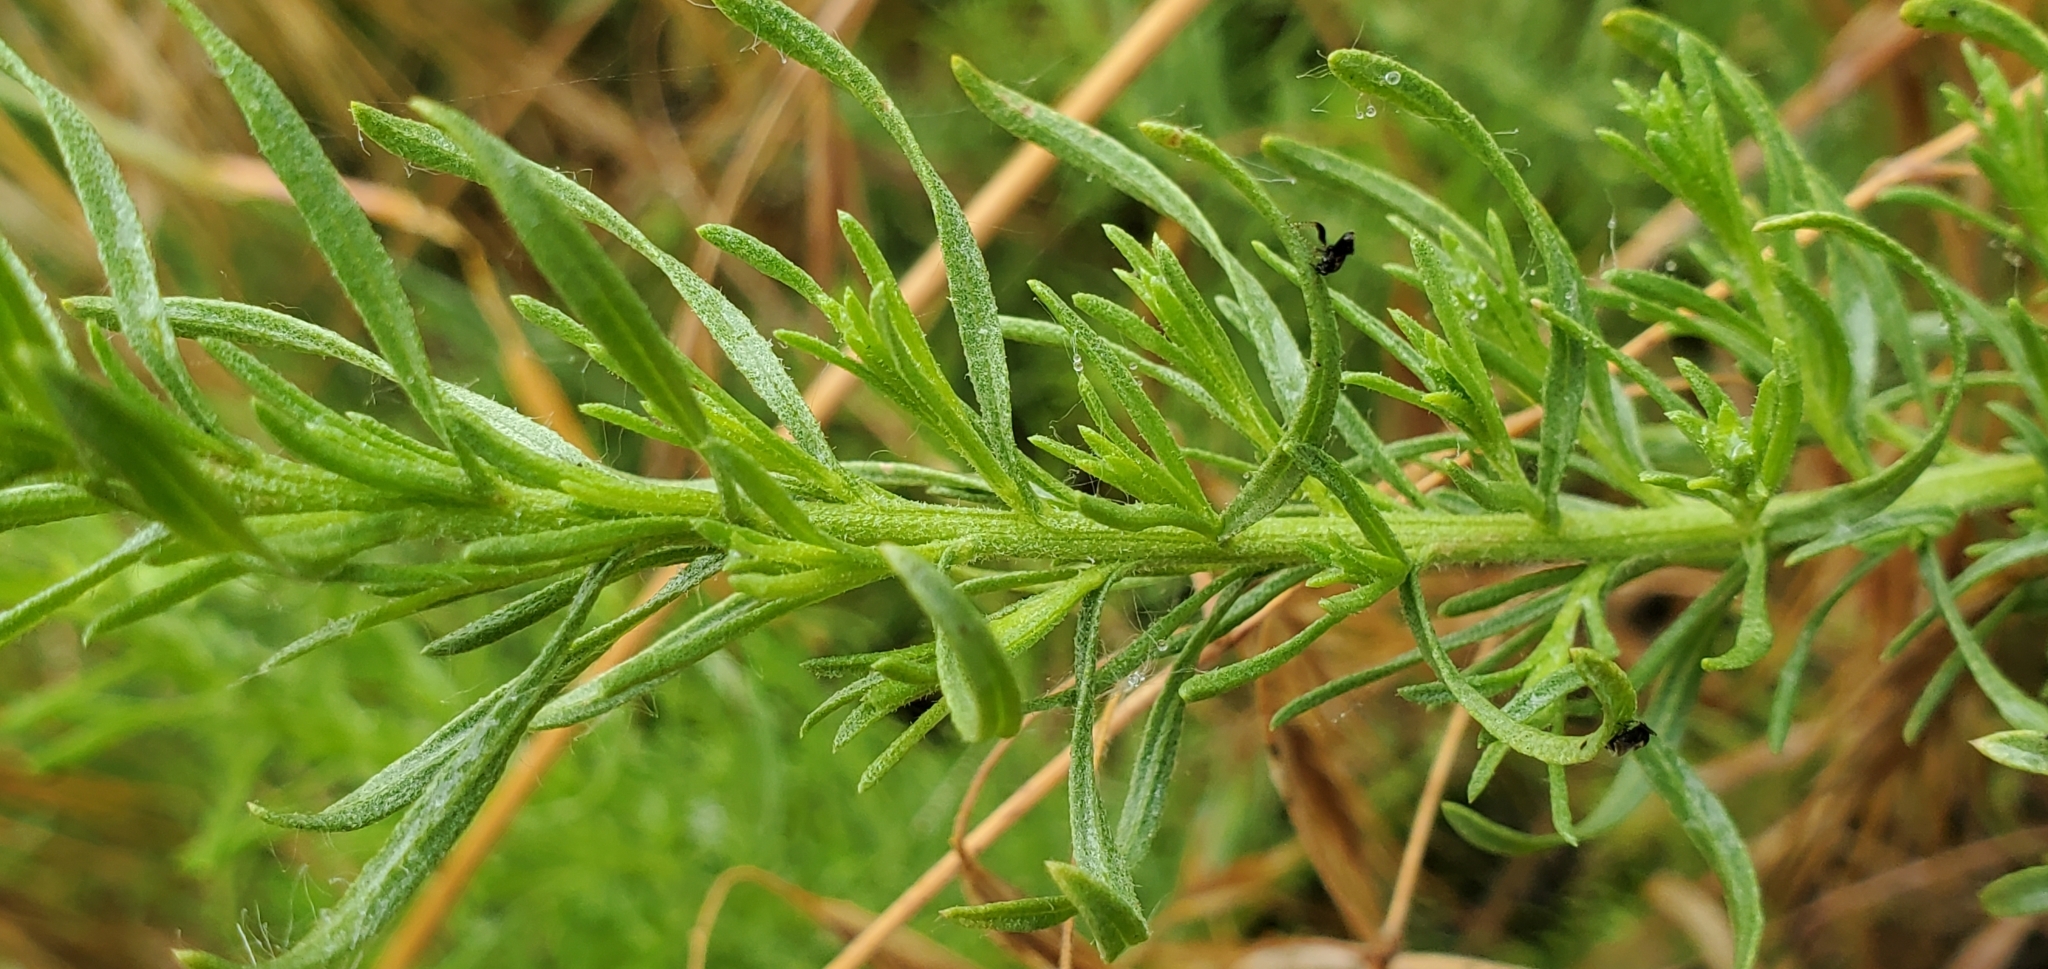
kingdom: Plantae
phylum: Tracheophyta
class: Magnoliopsida
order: Asterales
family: Asteraceae
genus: Ericameria
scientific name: Ericameria palmeri
